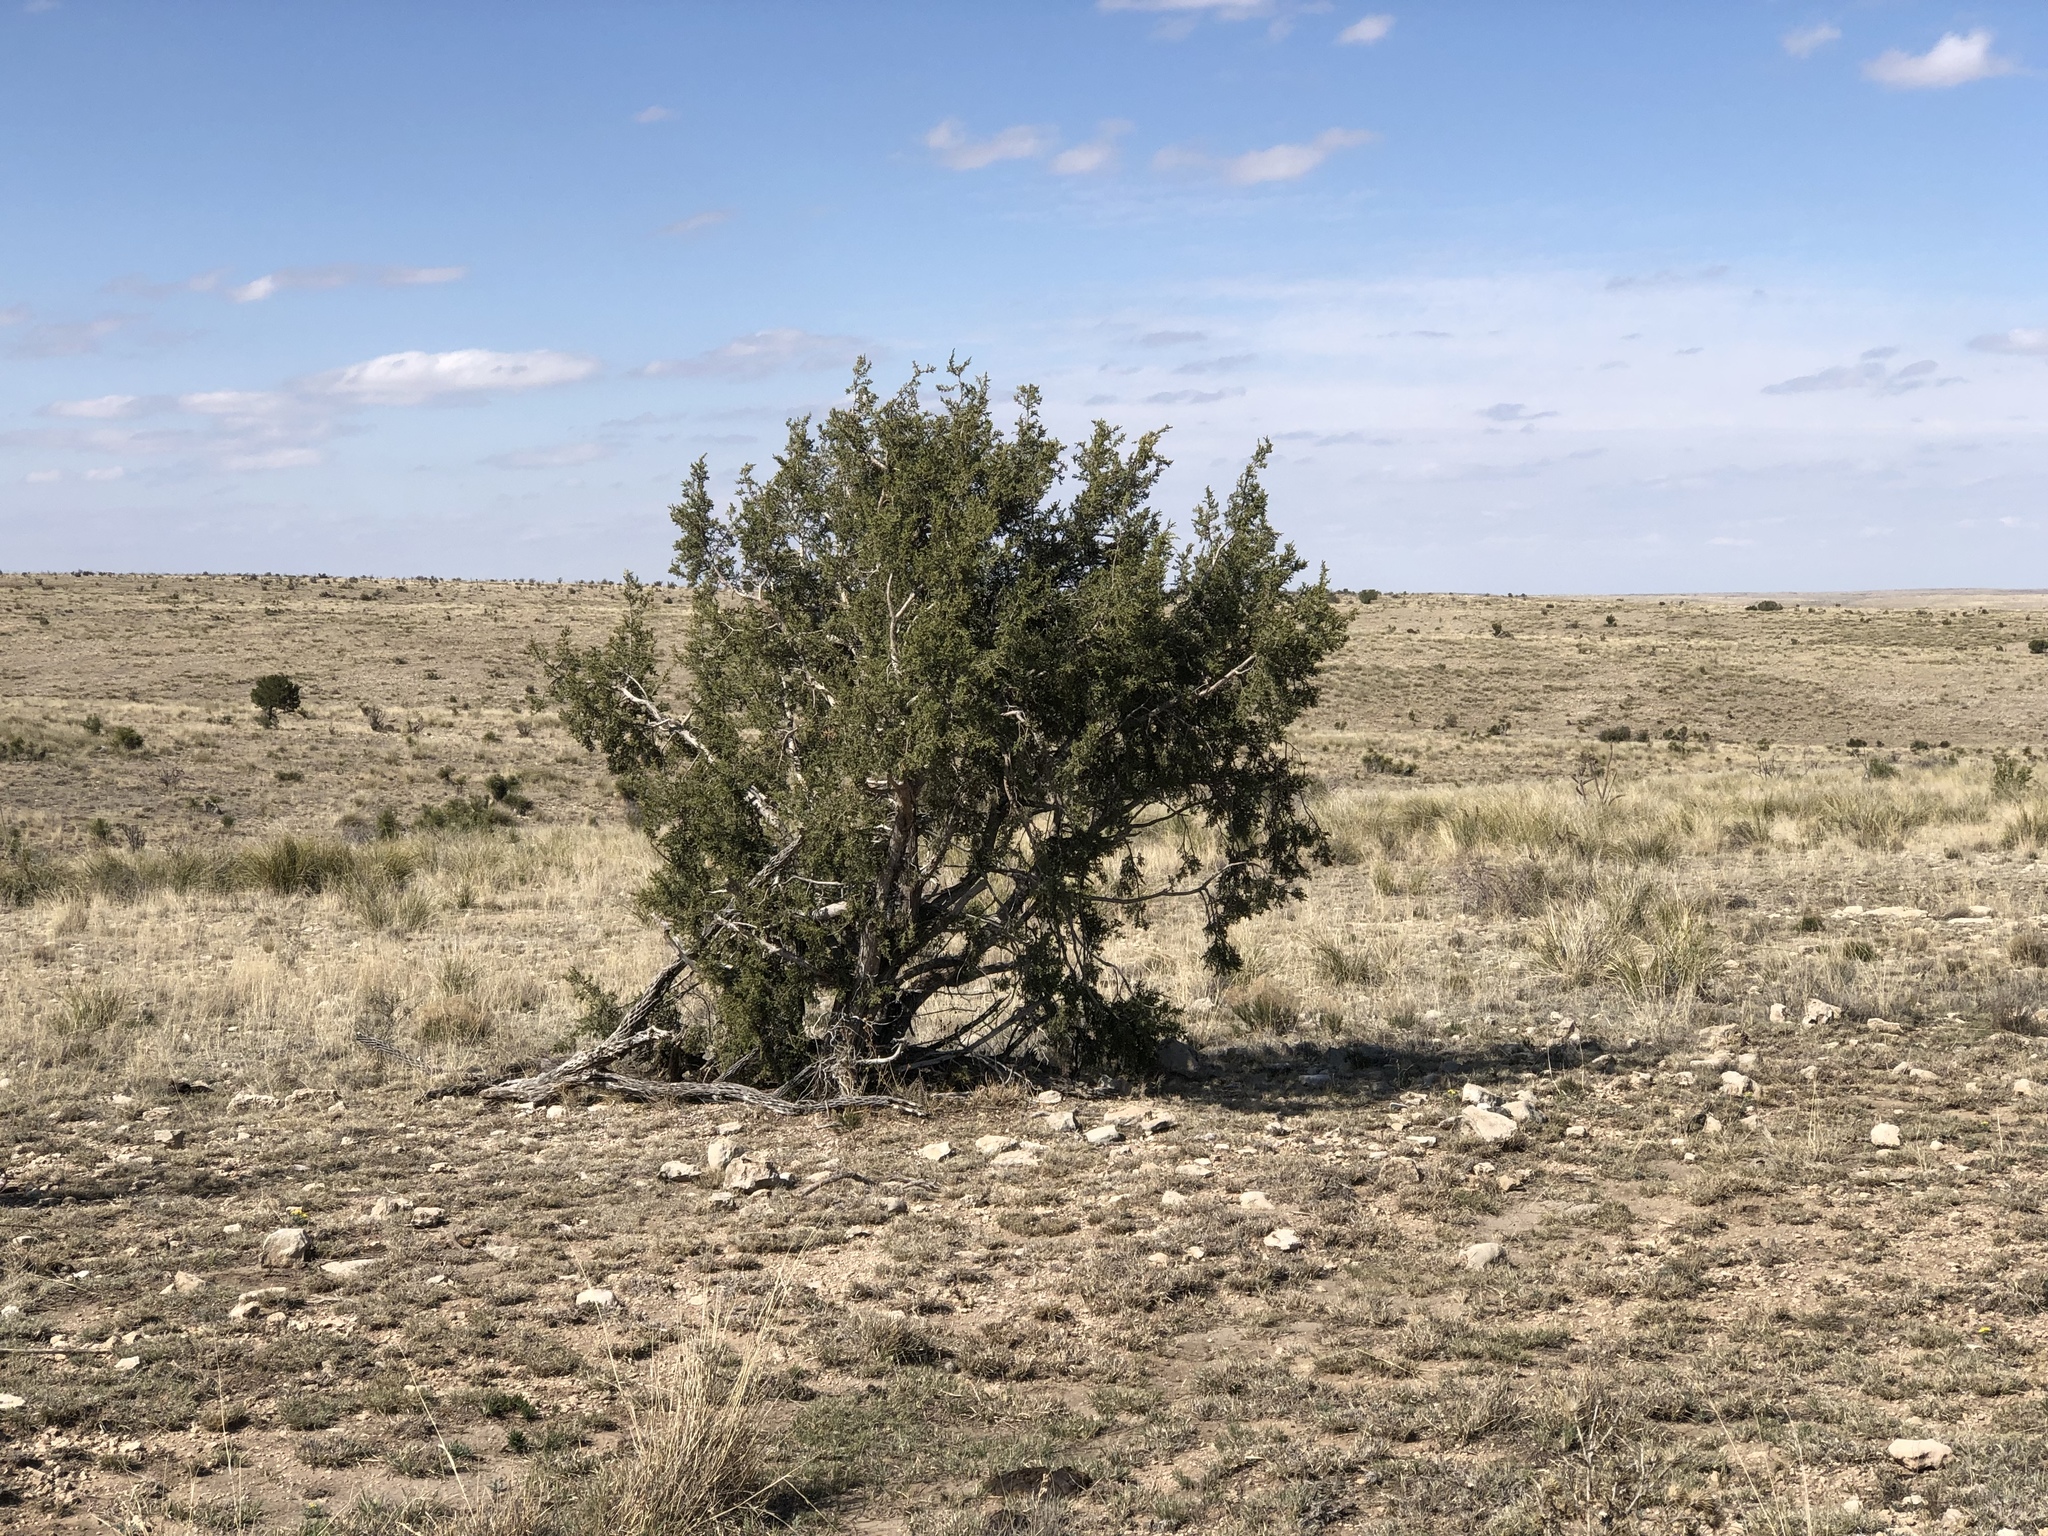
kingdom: Plantae
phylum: Tracheophyta
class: Pinopsida
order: Pinales
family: Cupressaceae
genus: Juniperus
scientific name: Juniperus monosperma
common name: One-seed juniper
